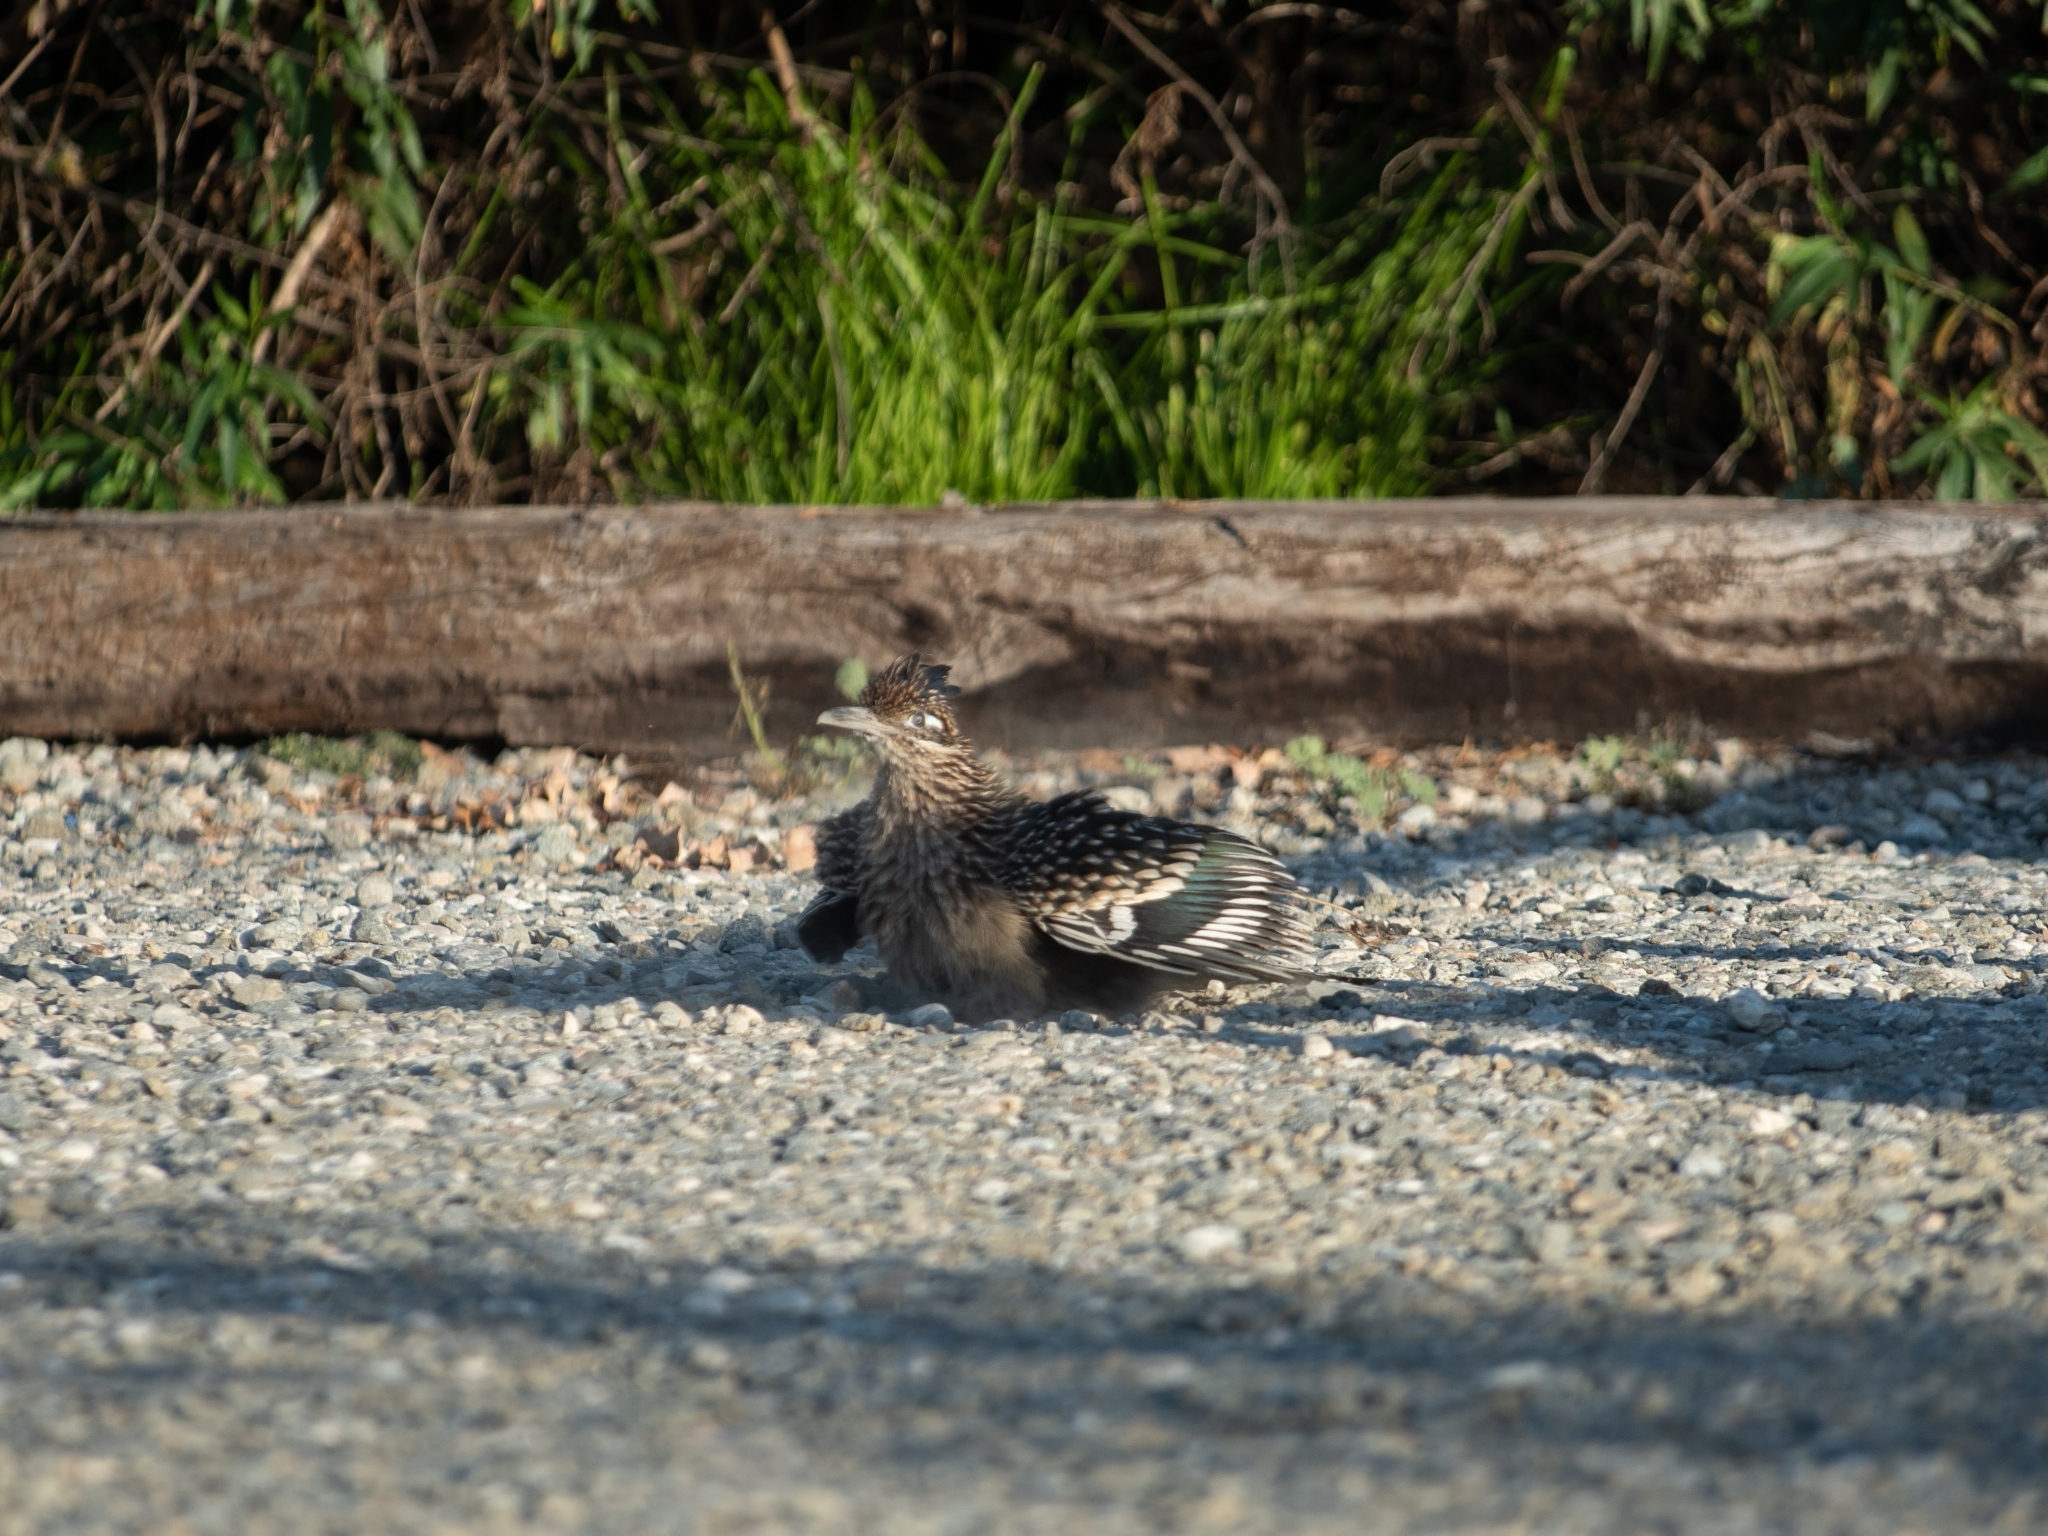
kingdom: Animalia
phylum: Chordata
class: Aves
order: Cuculiformes
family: Cuculidae
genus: Geococcyx
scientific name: Geococcyx californianus
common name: Greater roadrunner
